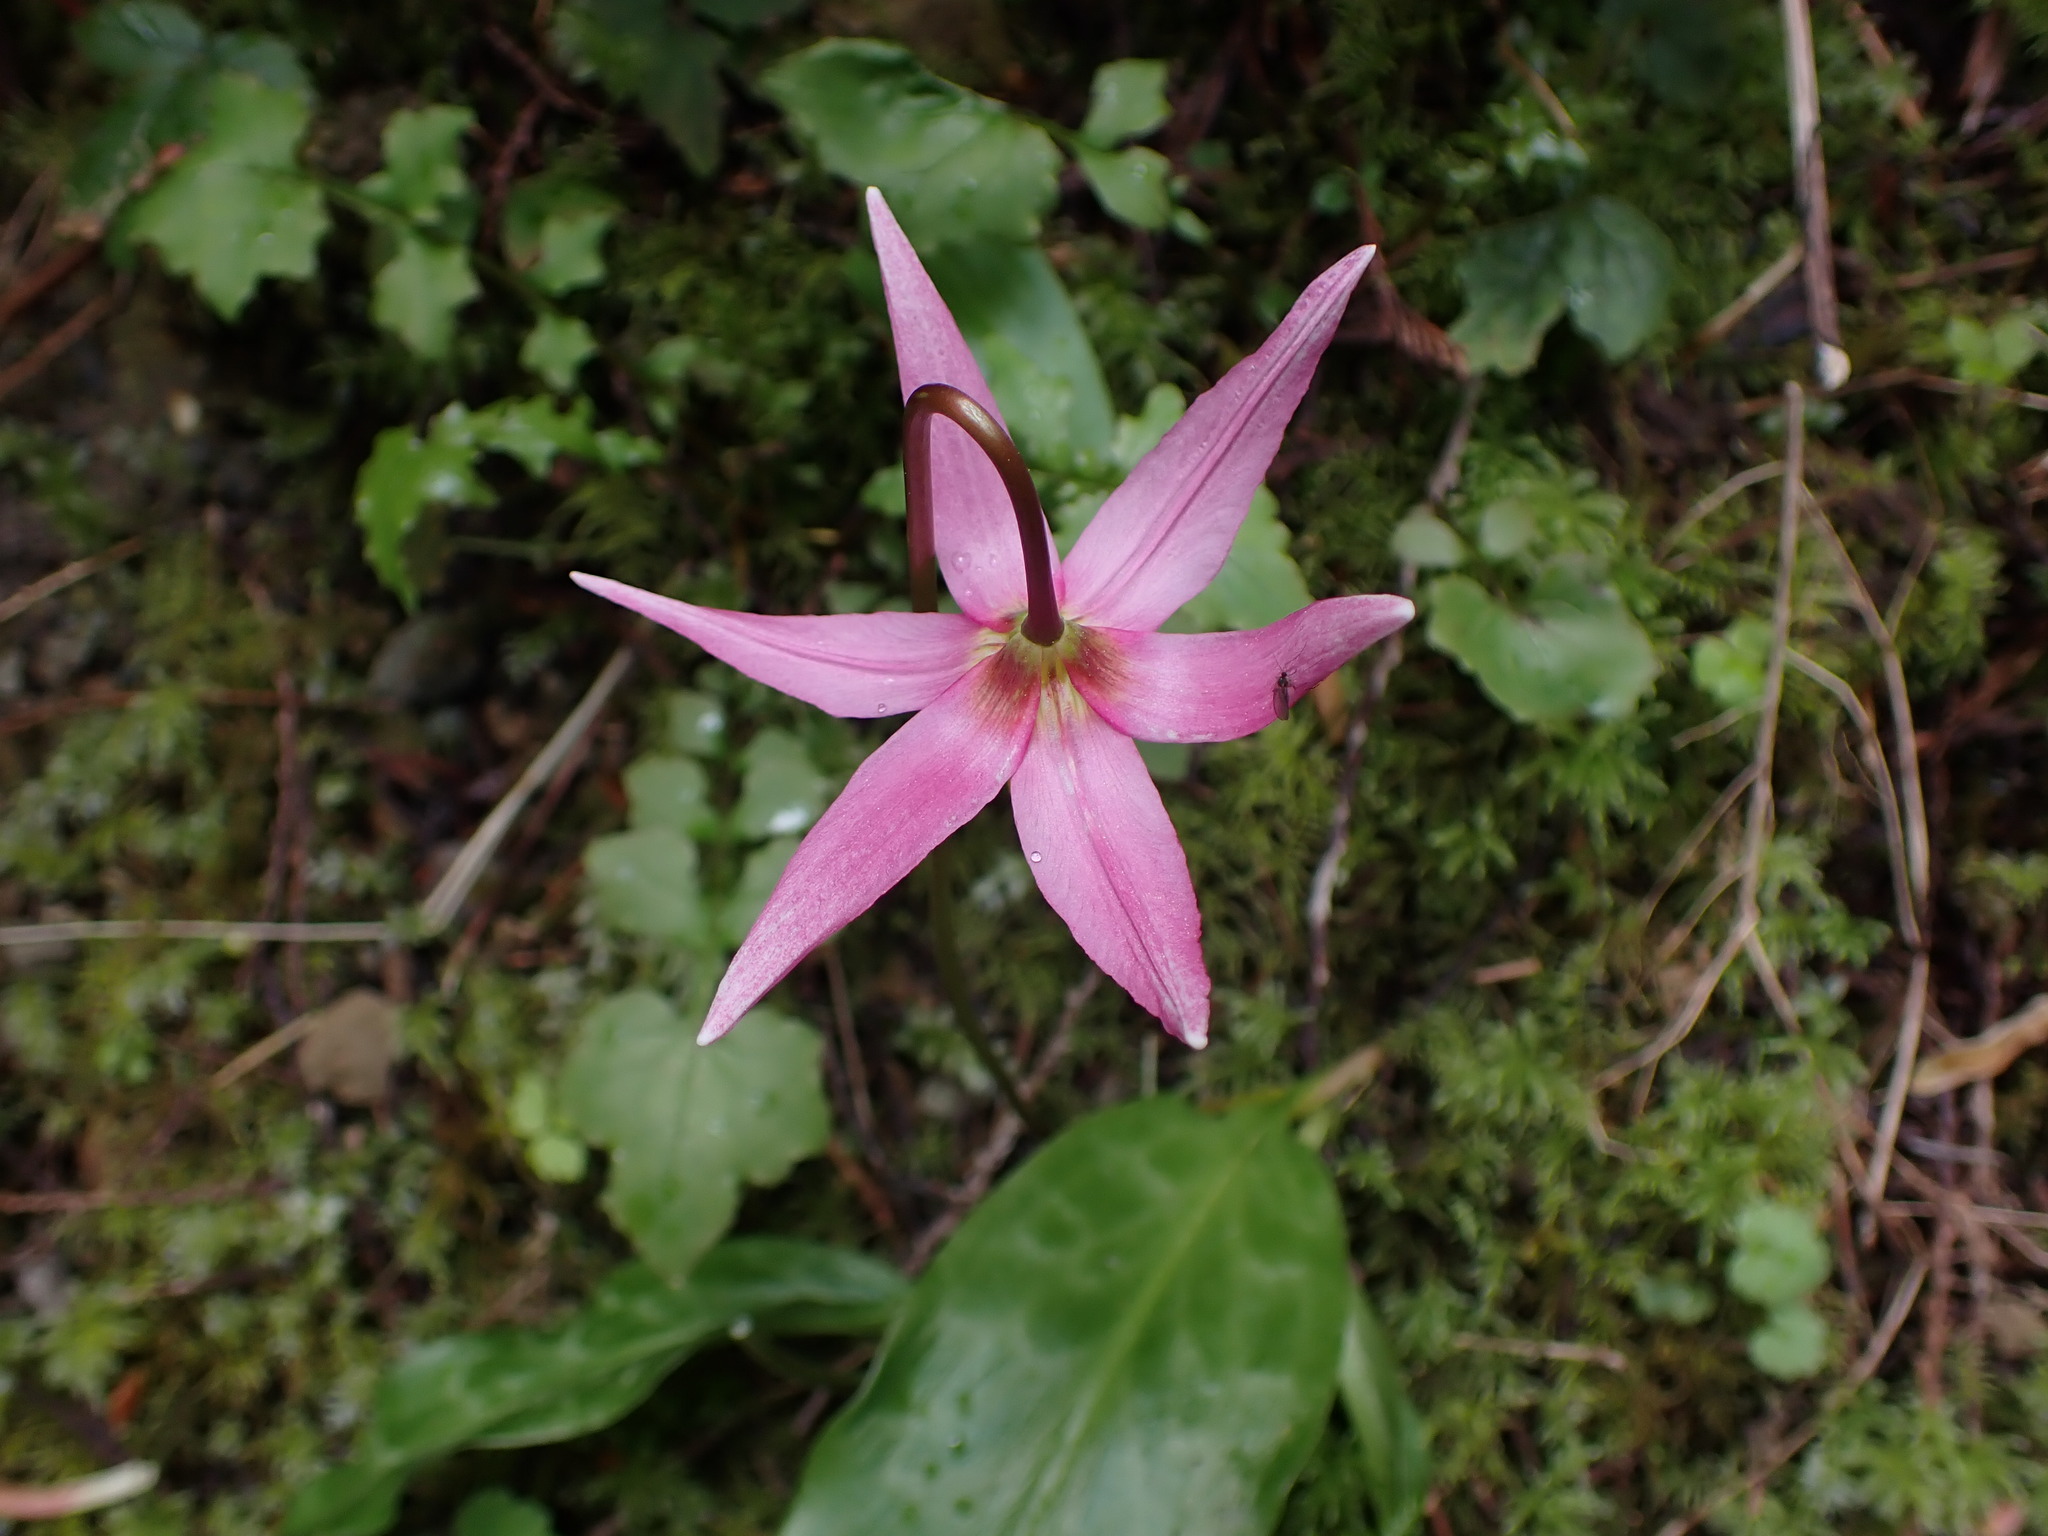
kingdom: Plantae
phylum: Tracheophyta
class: Liliopsida
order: Liliales
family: Liliaceae
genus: Erythronium
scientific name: Erythronium revolutum
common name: Pink fawn-lily
